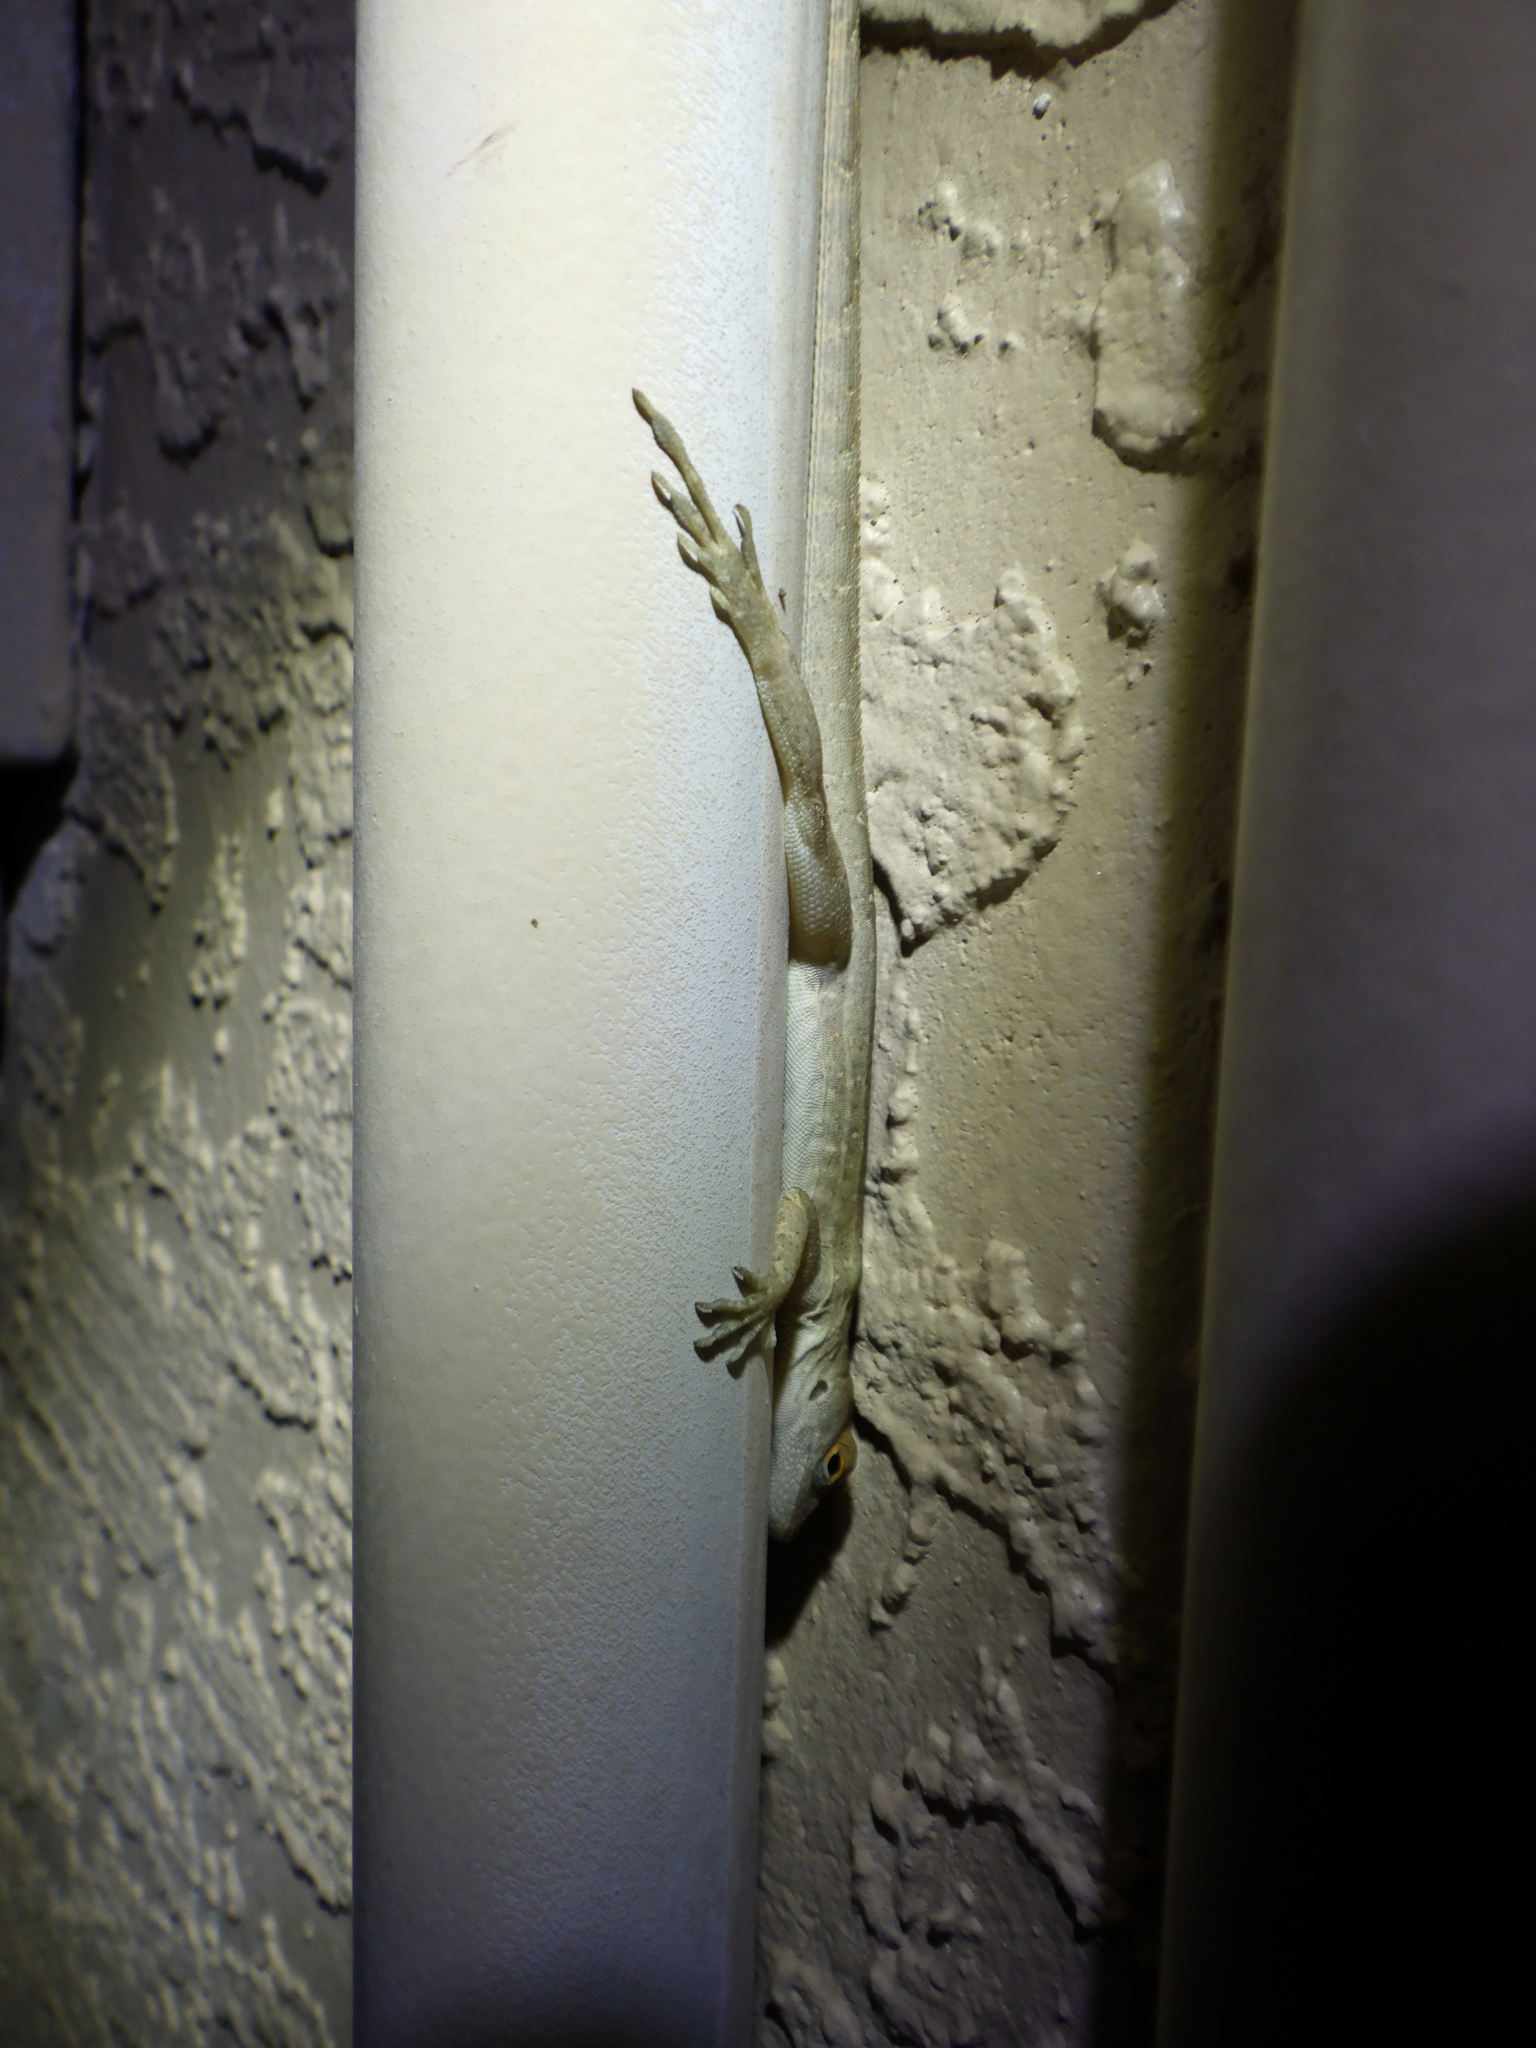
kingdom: Animalia
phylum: Chordata
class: Squamata
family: Dactyloidae
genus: Anolis
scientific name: Anolis sagrei
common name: Brown anole
